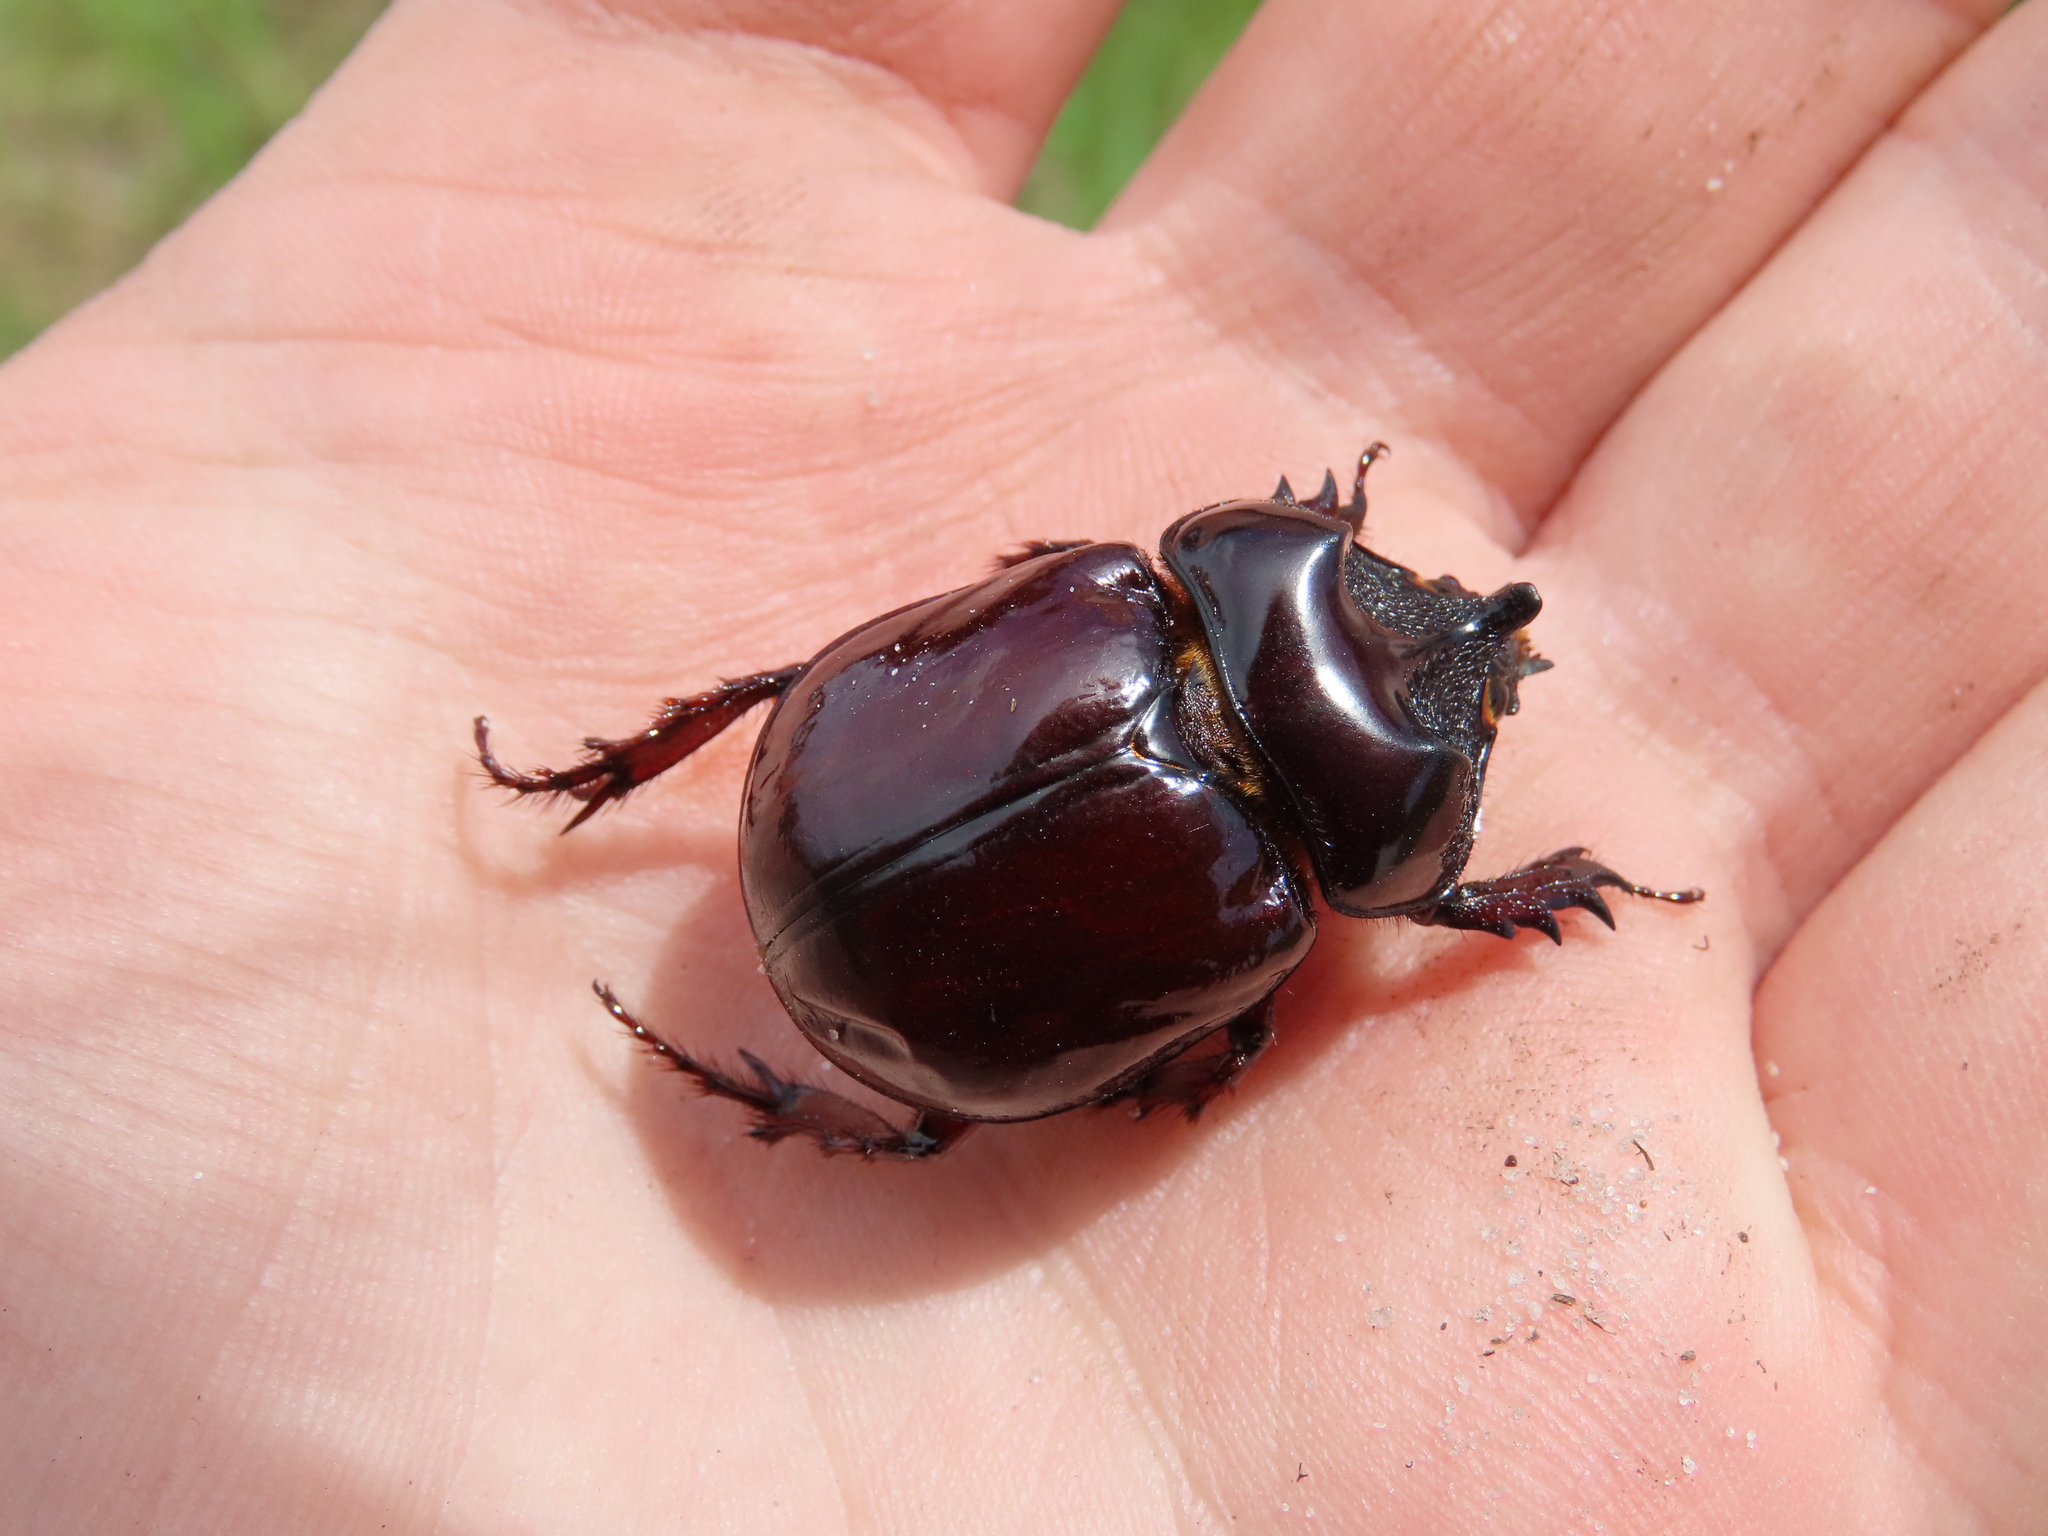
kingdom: Animalia
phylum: Arthropoda
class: Insecta
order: Coleoptera
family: Scarabaeidae
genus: Strategus
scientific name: Strategus antaeus
